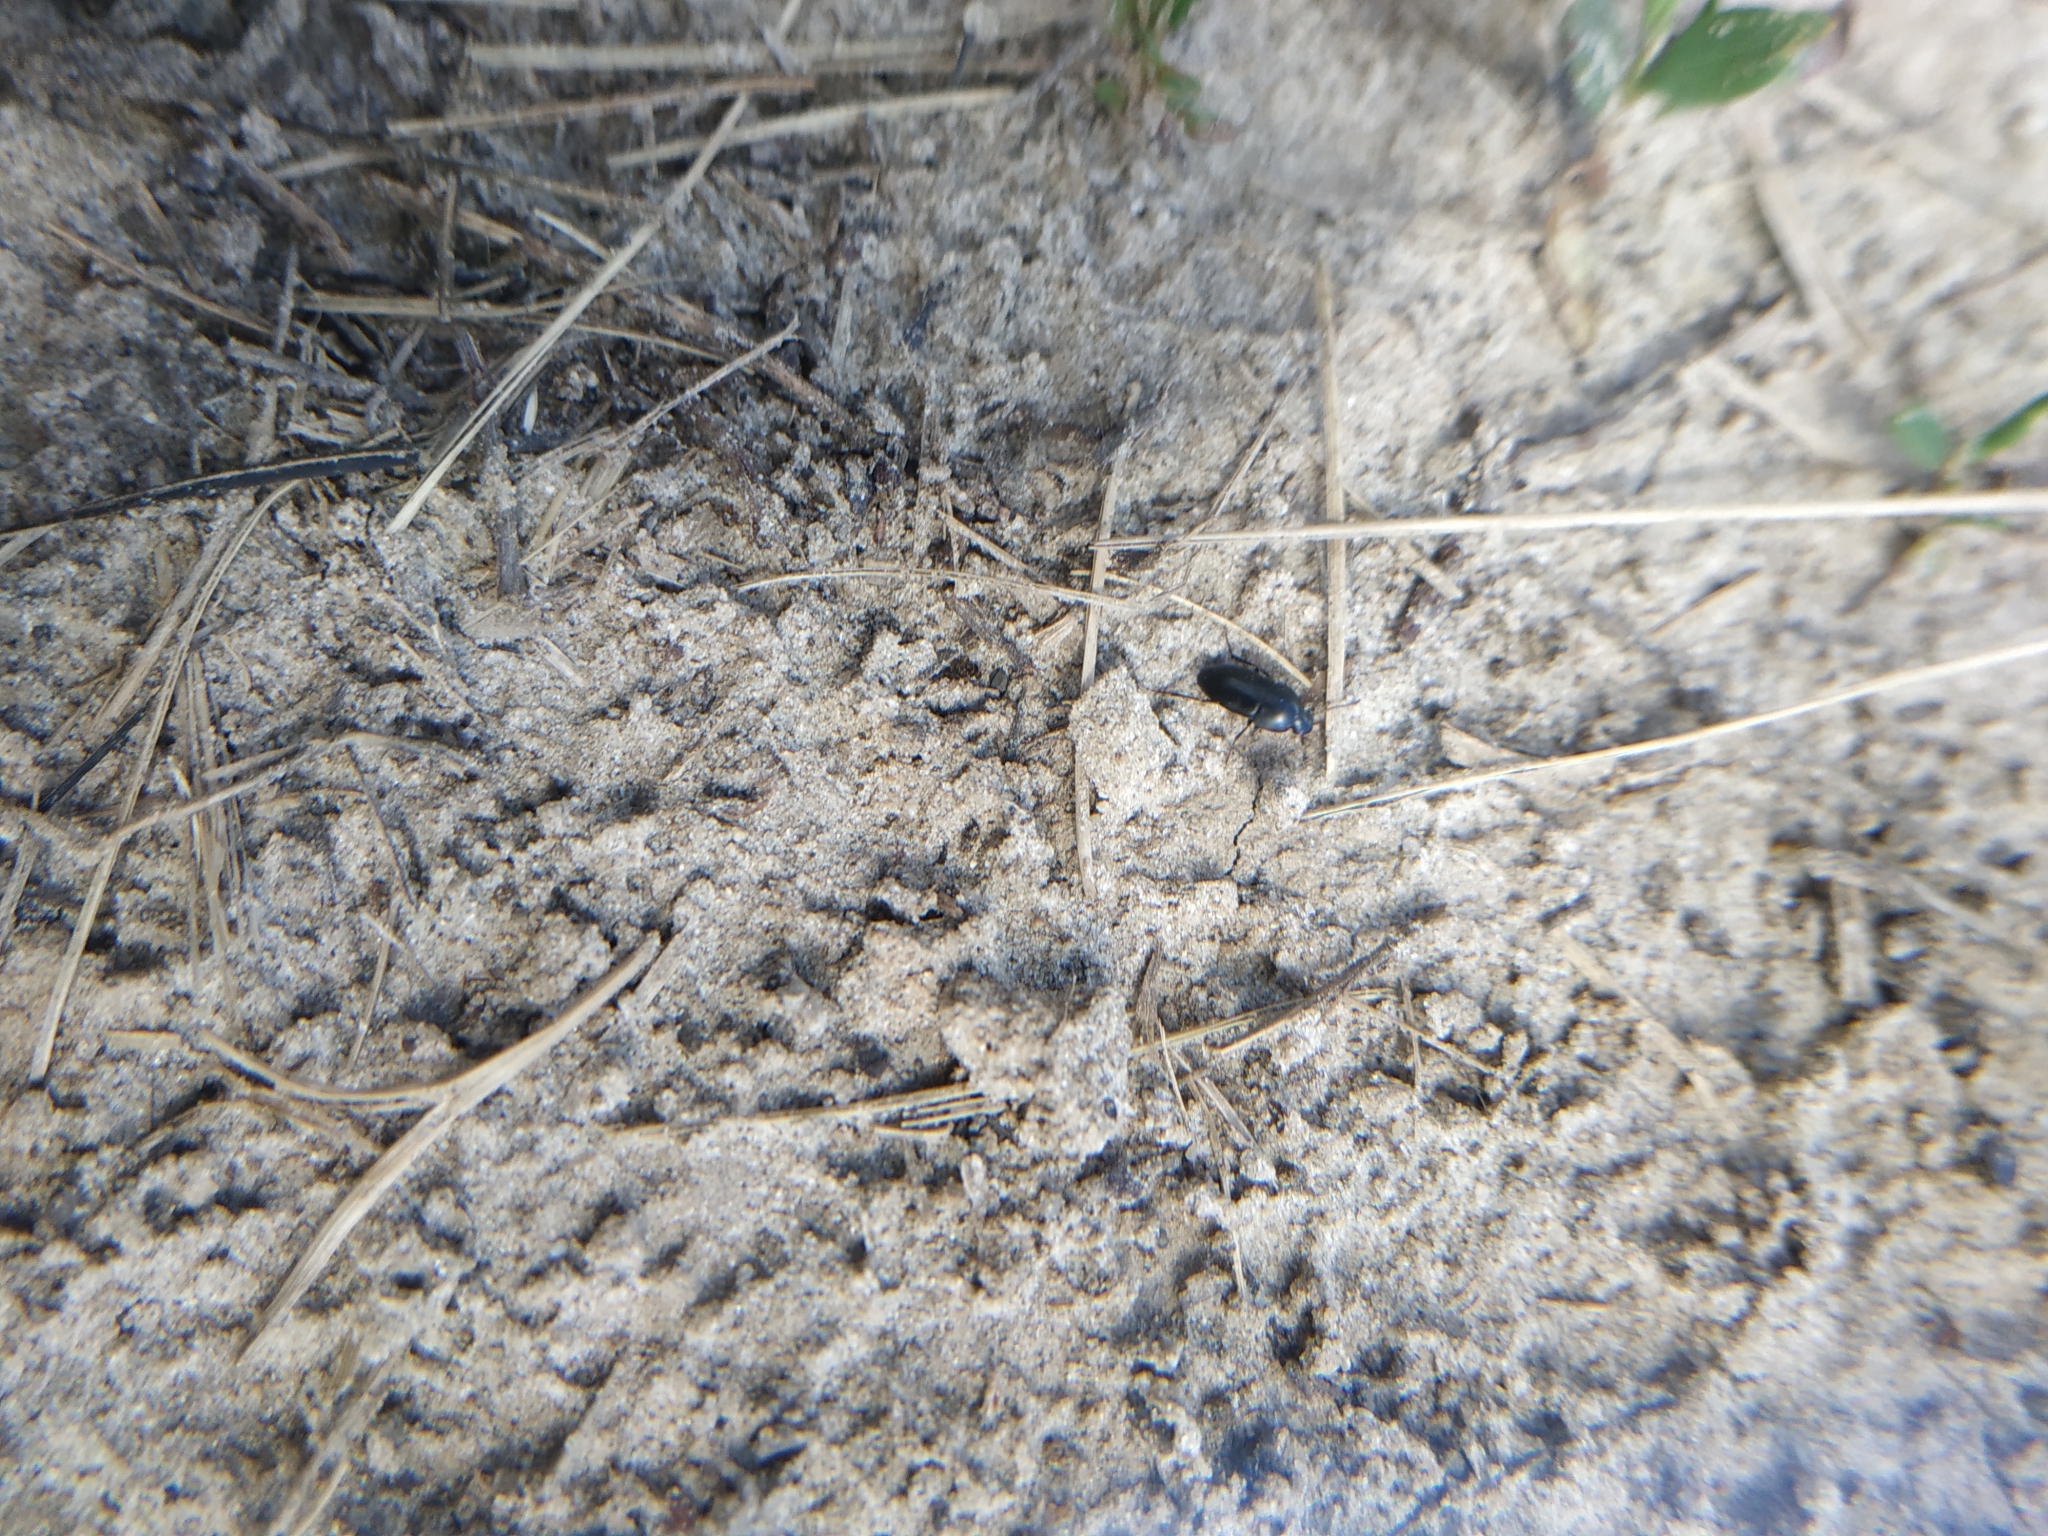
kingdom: Animalia
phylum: Arthropoda
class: Insecta
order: Coleoptera
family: Tenebrionidae
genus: Crypticus
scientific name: Crypticus quisquilius
